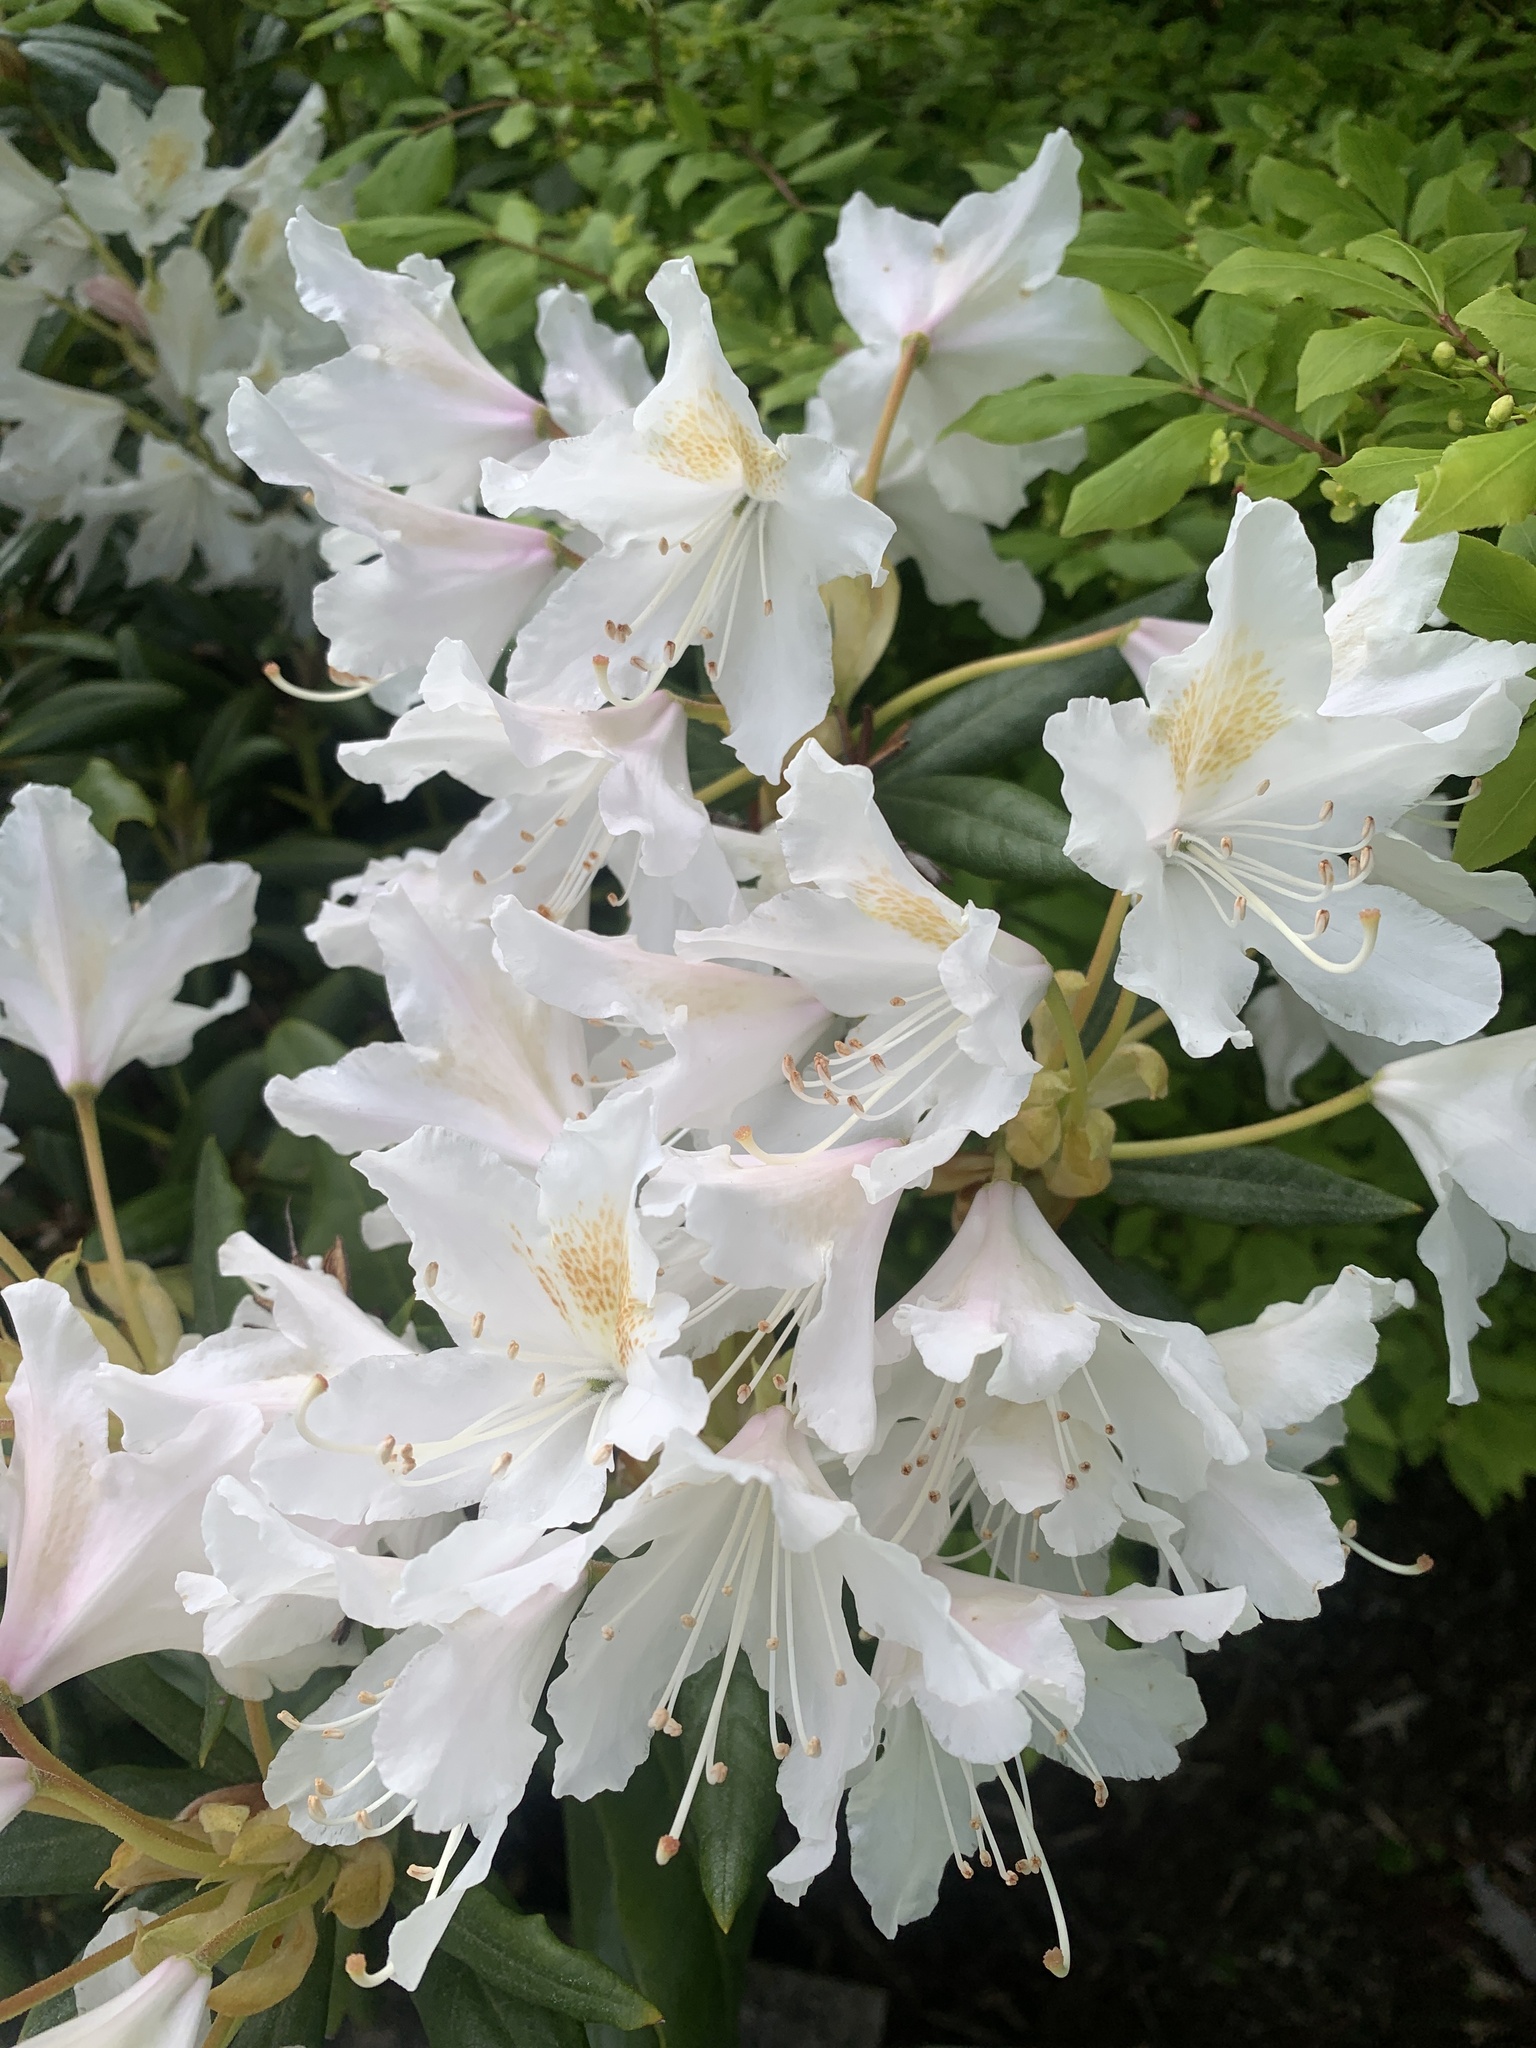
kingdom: Plantae
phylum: Tracheophyta
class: Magnoliopsida
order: Ericales
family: Ericaceae
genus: Rhododendron
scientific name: Rhododendron ponticum
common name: Rhododendron
